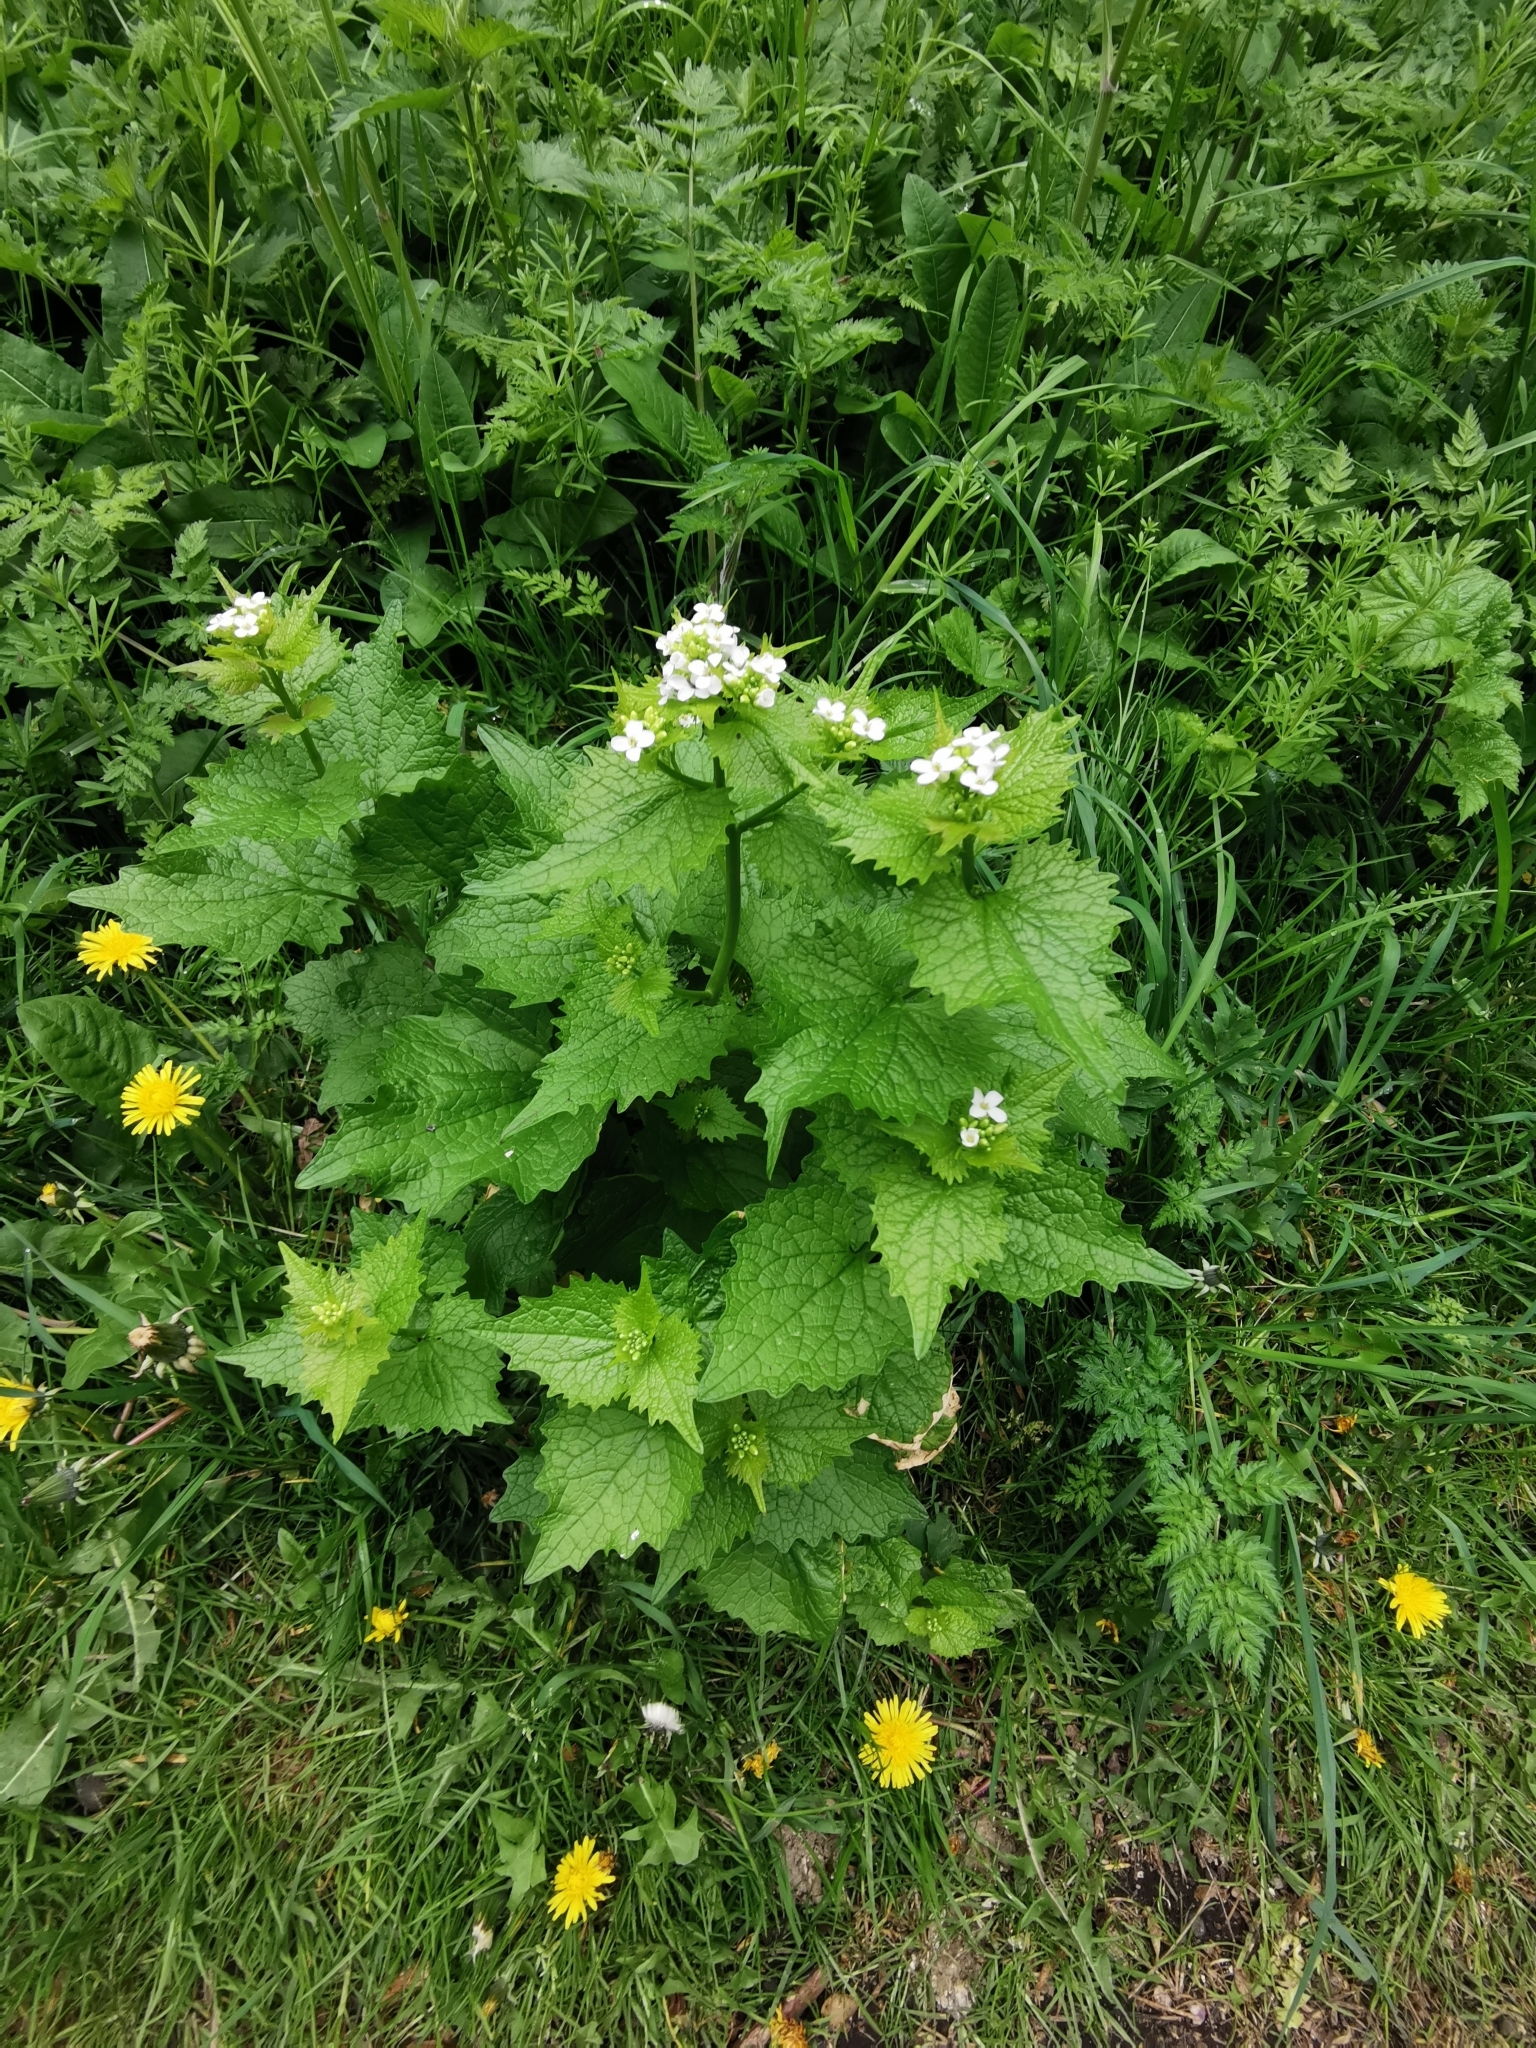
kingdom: Plantae
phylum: Tracheophyta
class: Magnoliopsida
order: Brassicales
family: Brassicaceae
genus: Alliaria
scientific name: Alliaria petiolata
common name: Garlic mustard
